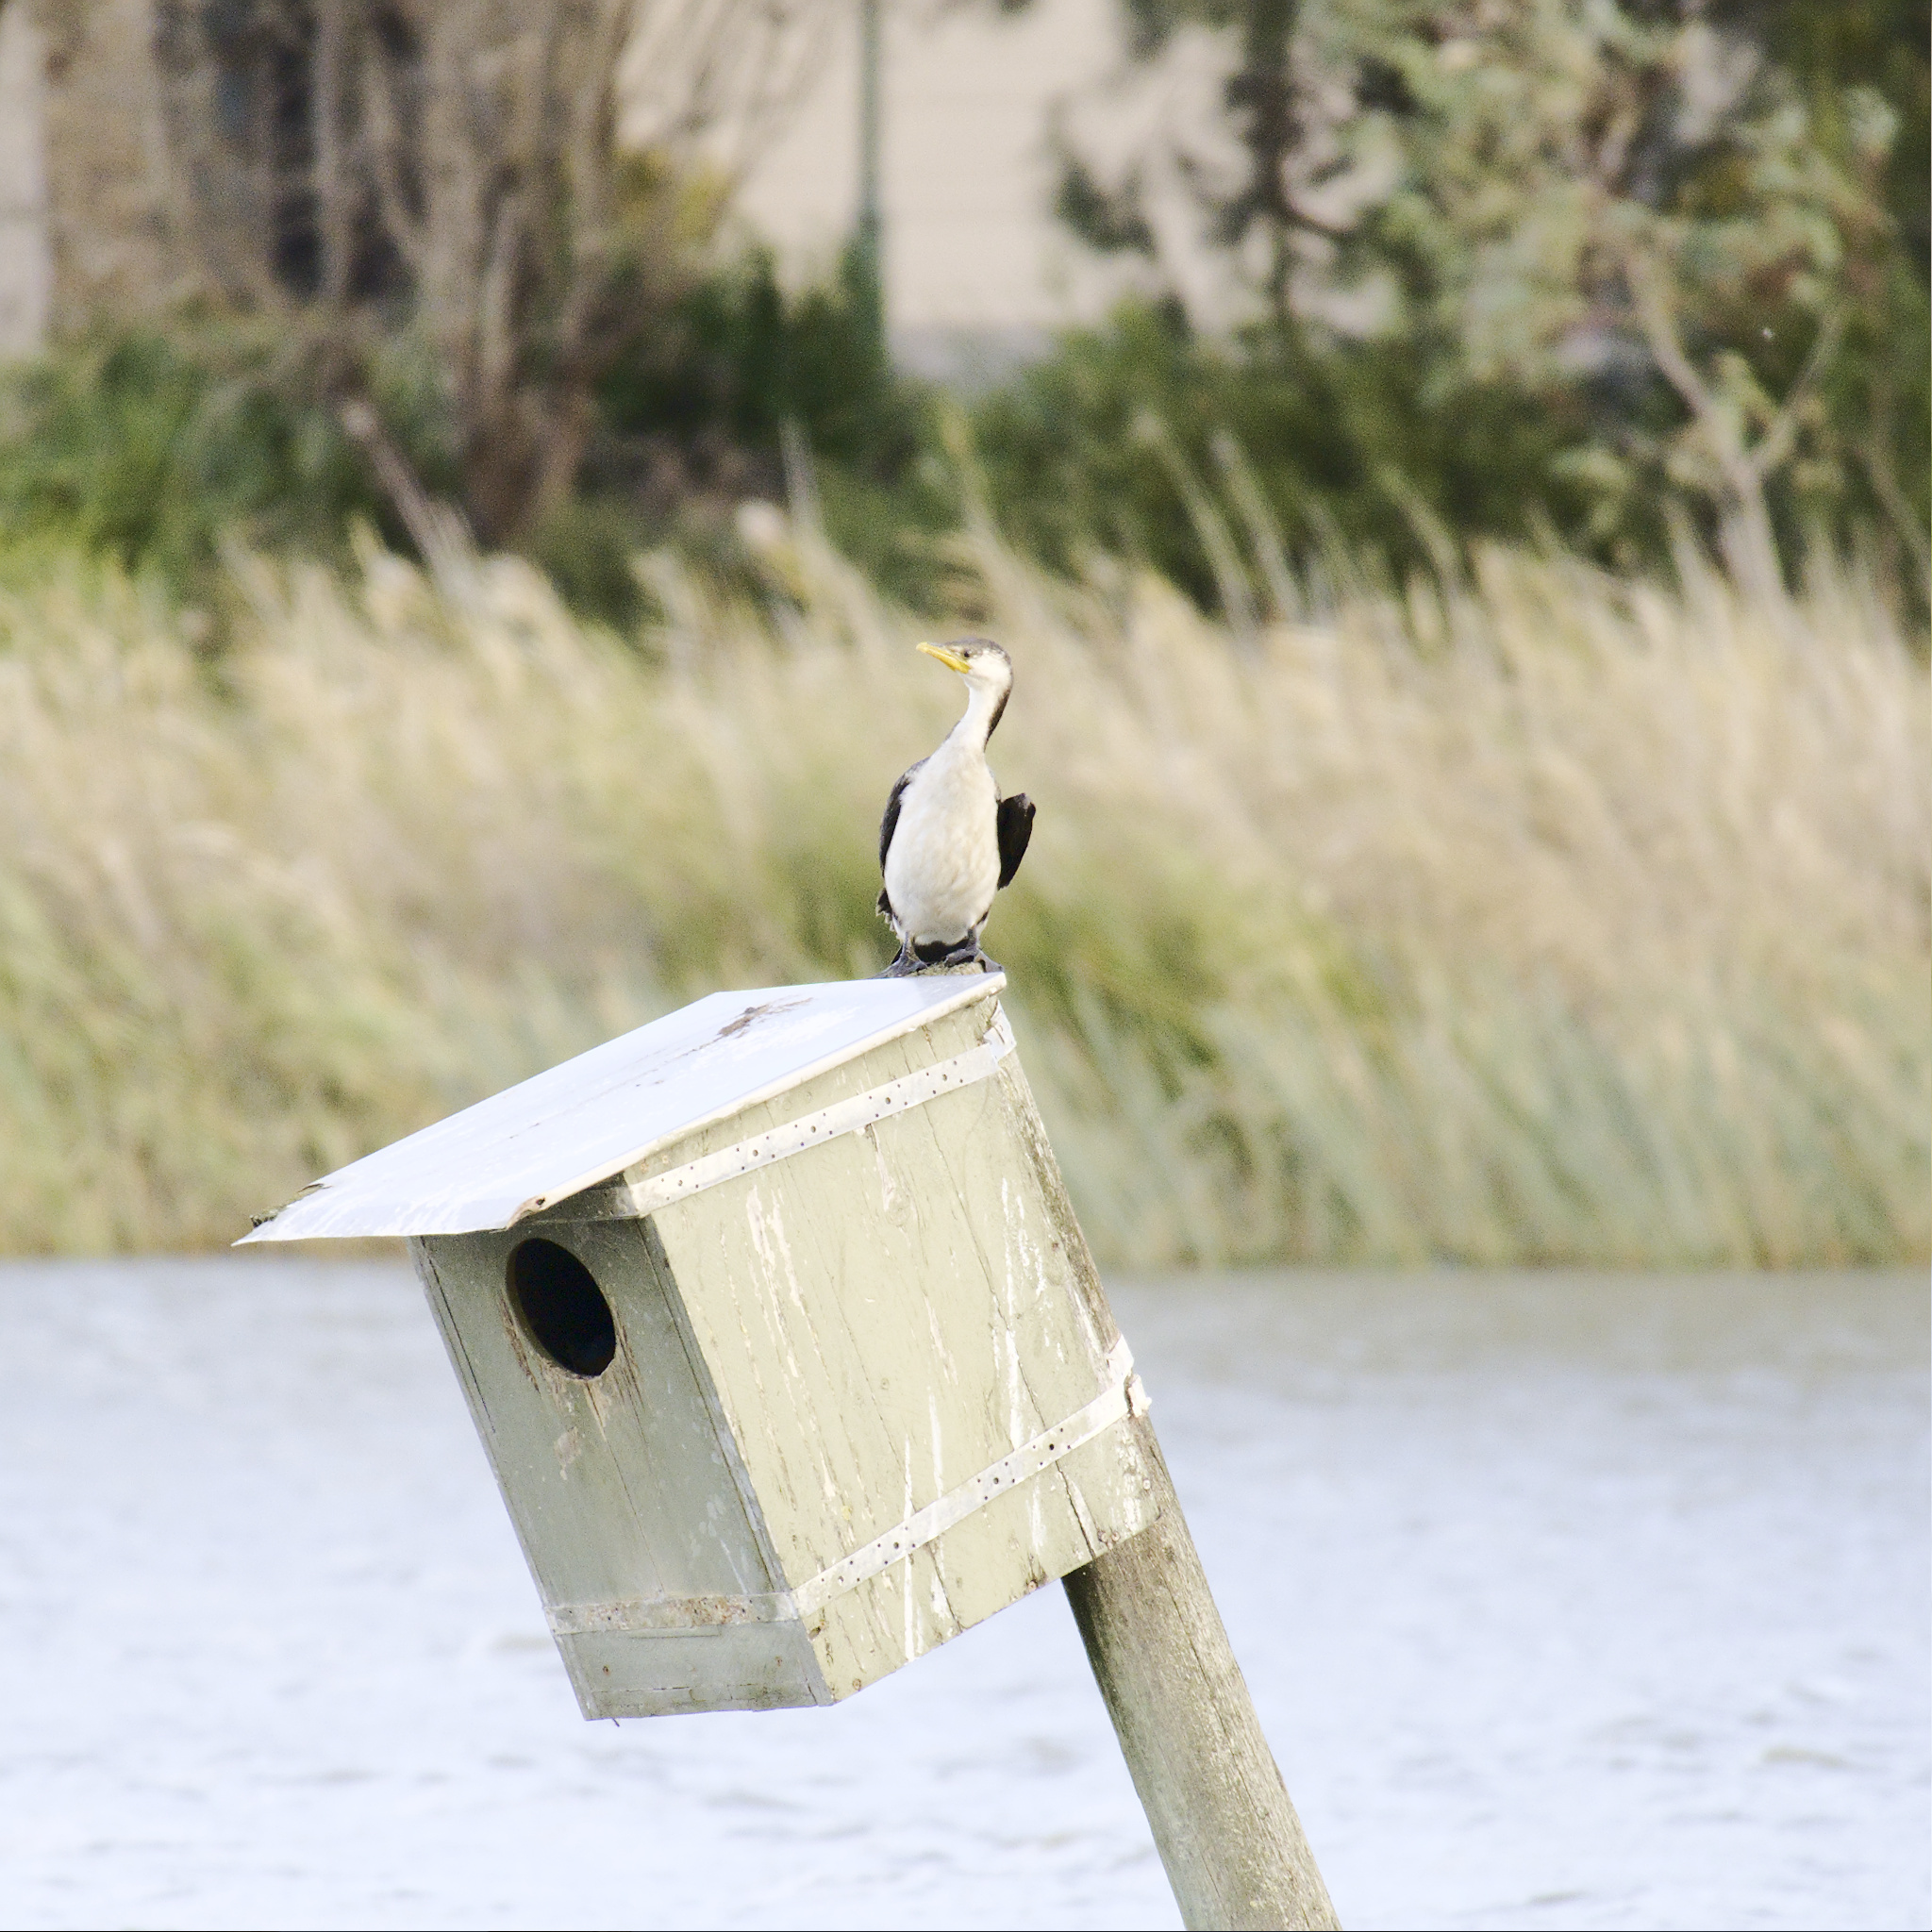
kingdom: Animalia
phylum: Chordata
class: Aves
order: Suliformes
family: Phalacrocoracidae
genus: Microcarbo
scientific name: Microcarbo melanoleucos
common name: Little pied cormorant
